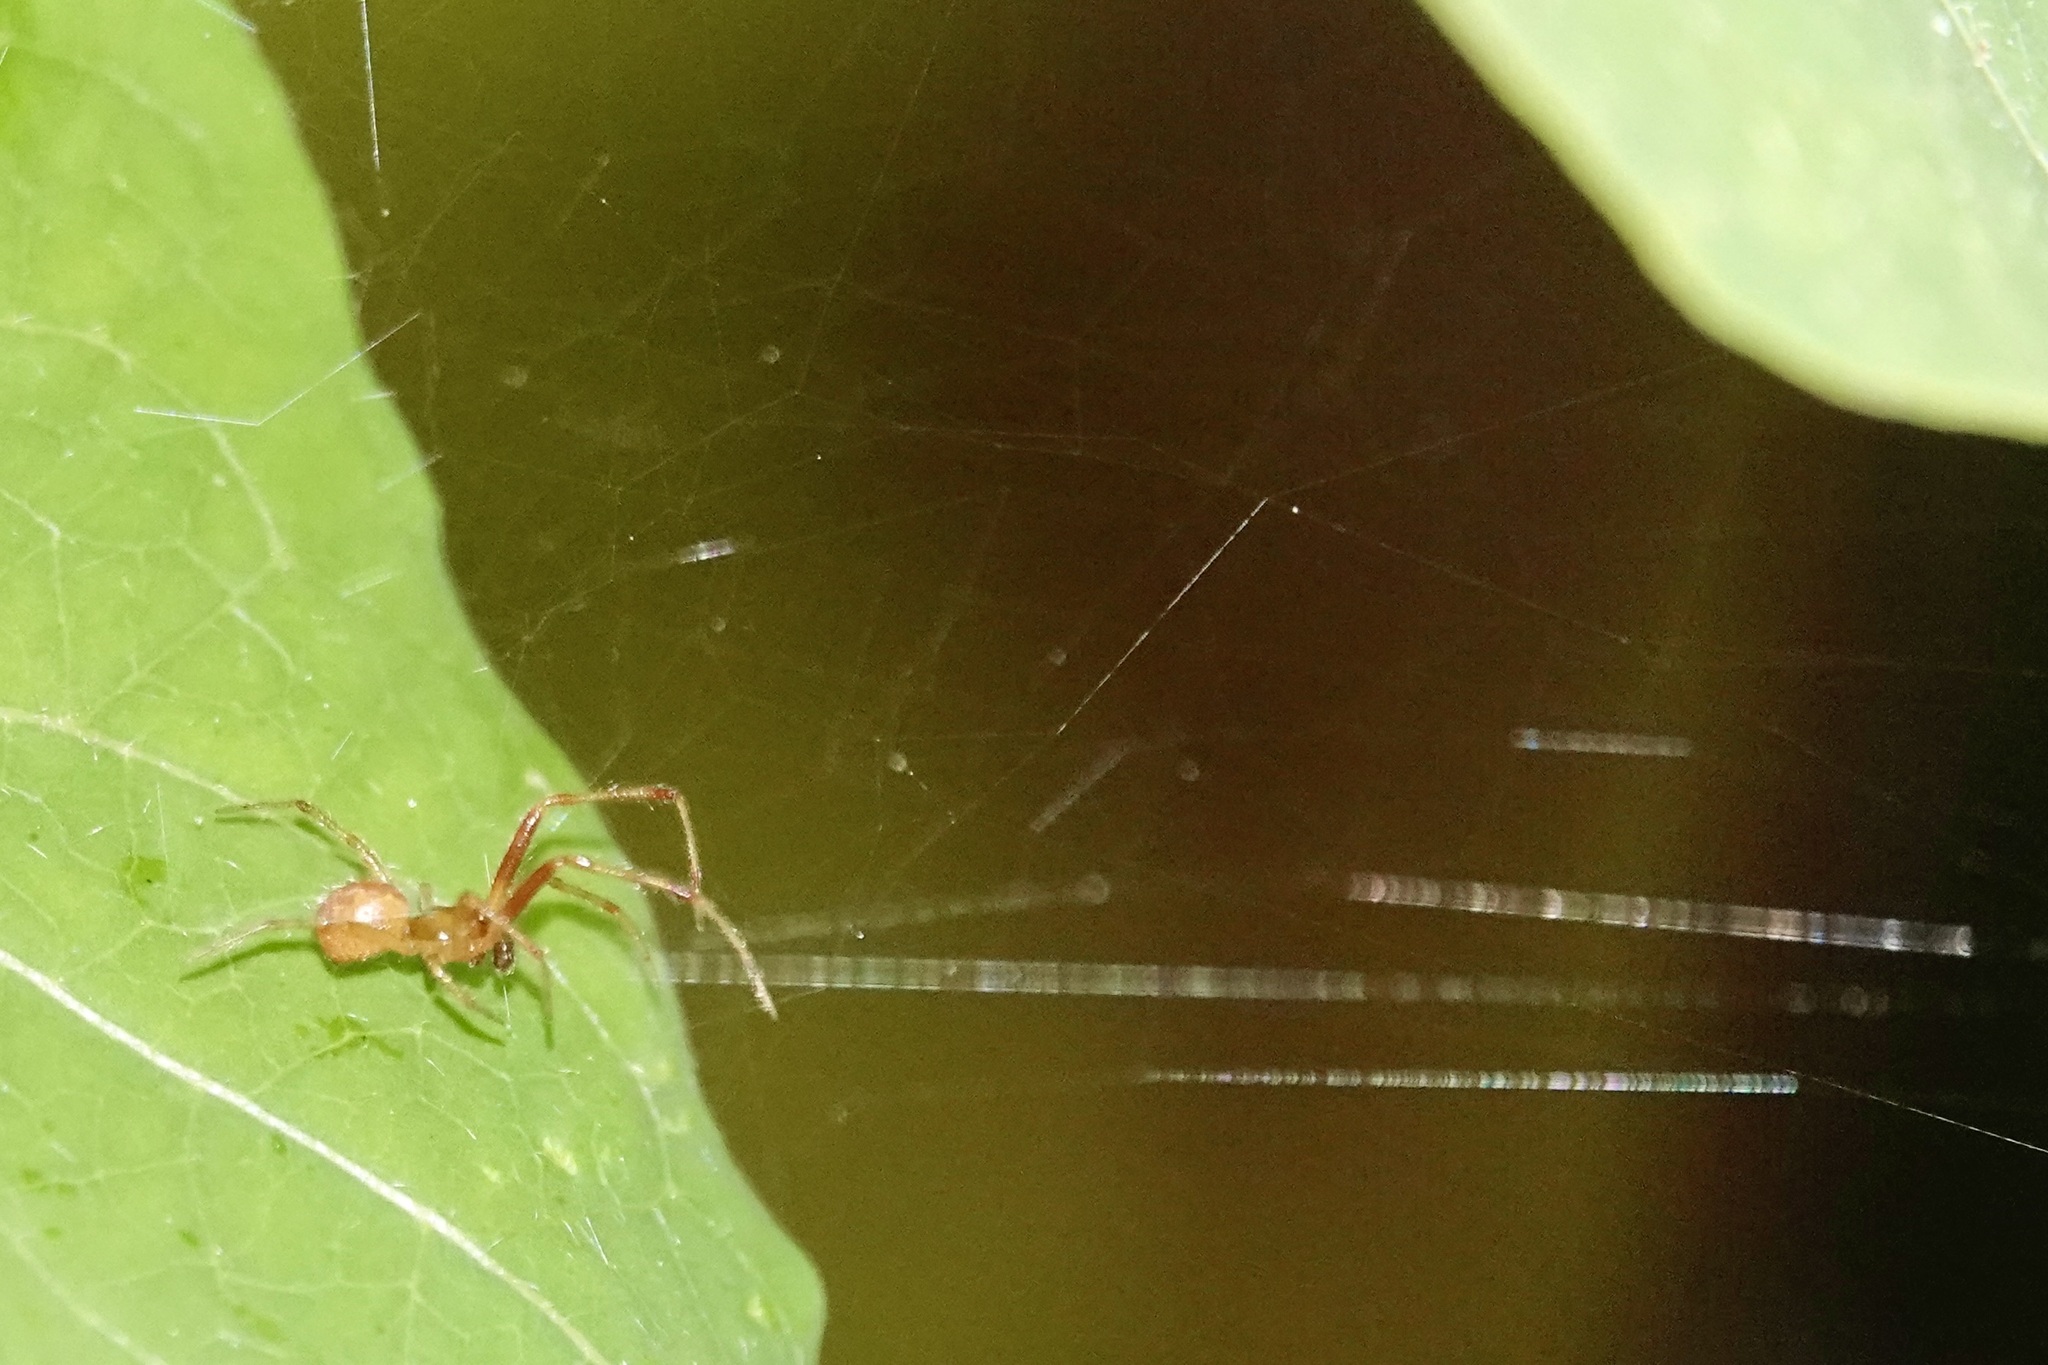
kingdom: Animalia
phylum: Arthropoda
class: Arachnida
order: Araneae
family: Theridiidae
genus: Anelosimus
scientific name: Anelosimus studiosus
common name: Cobweb spiders
